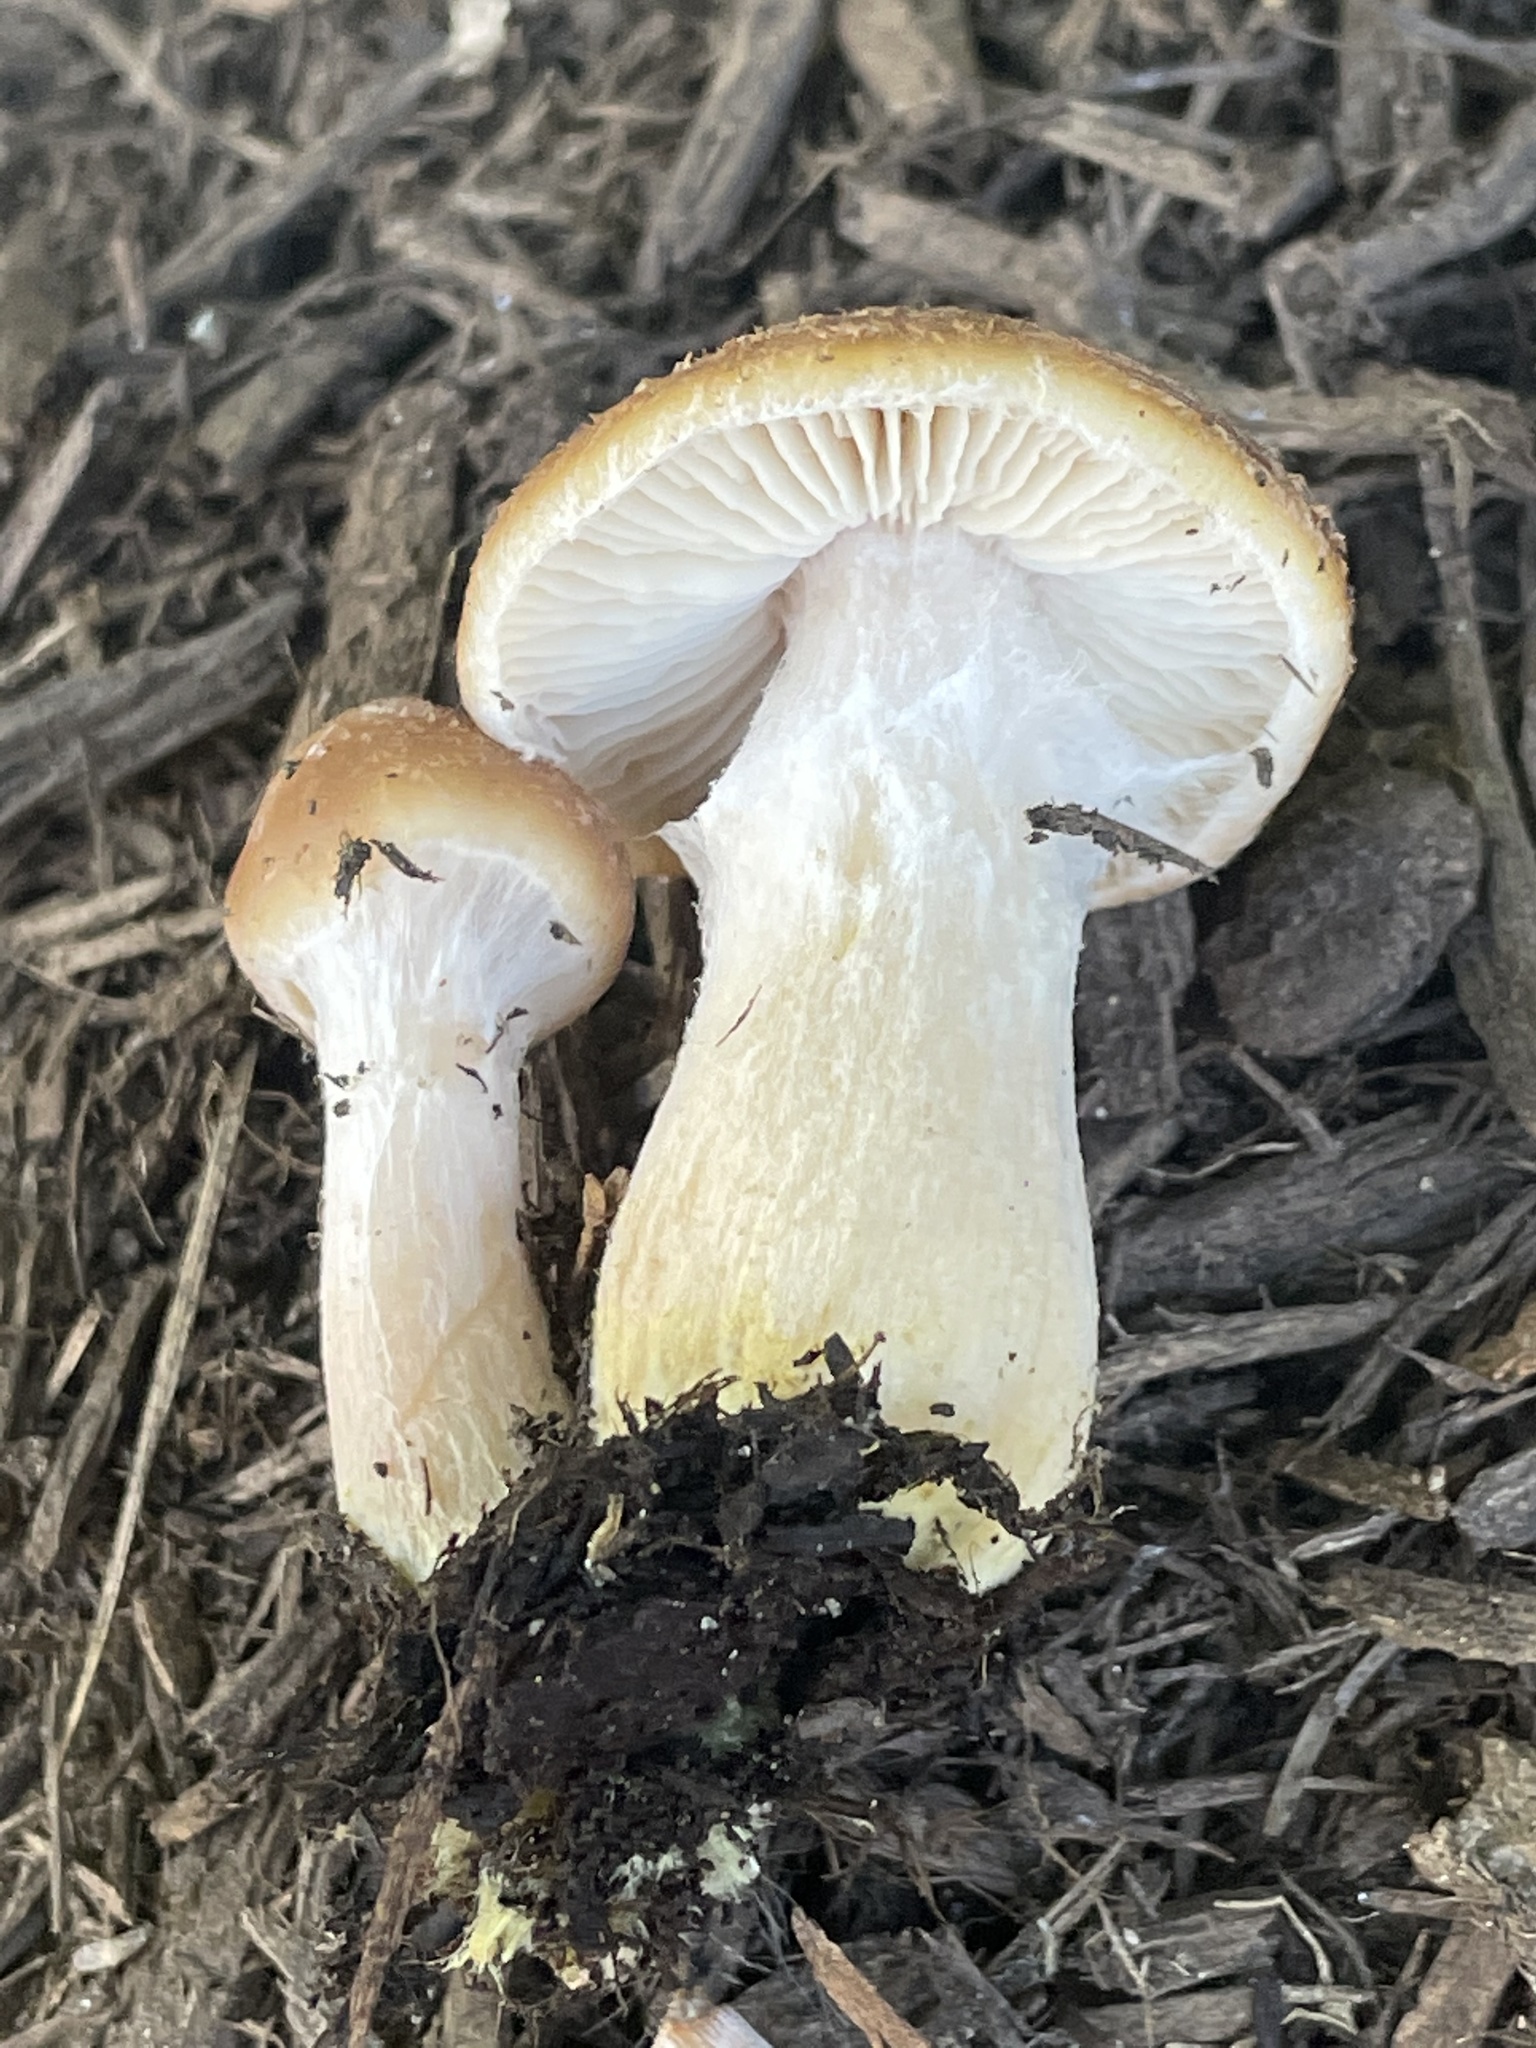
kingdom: Fungi
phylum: Basidiomycota
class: Agaricomycetes
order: Agaricales
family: Physalacriaceae
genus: Armillaria
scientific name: Armillaria gallica
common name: Bulbous honey fungus
